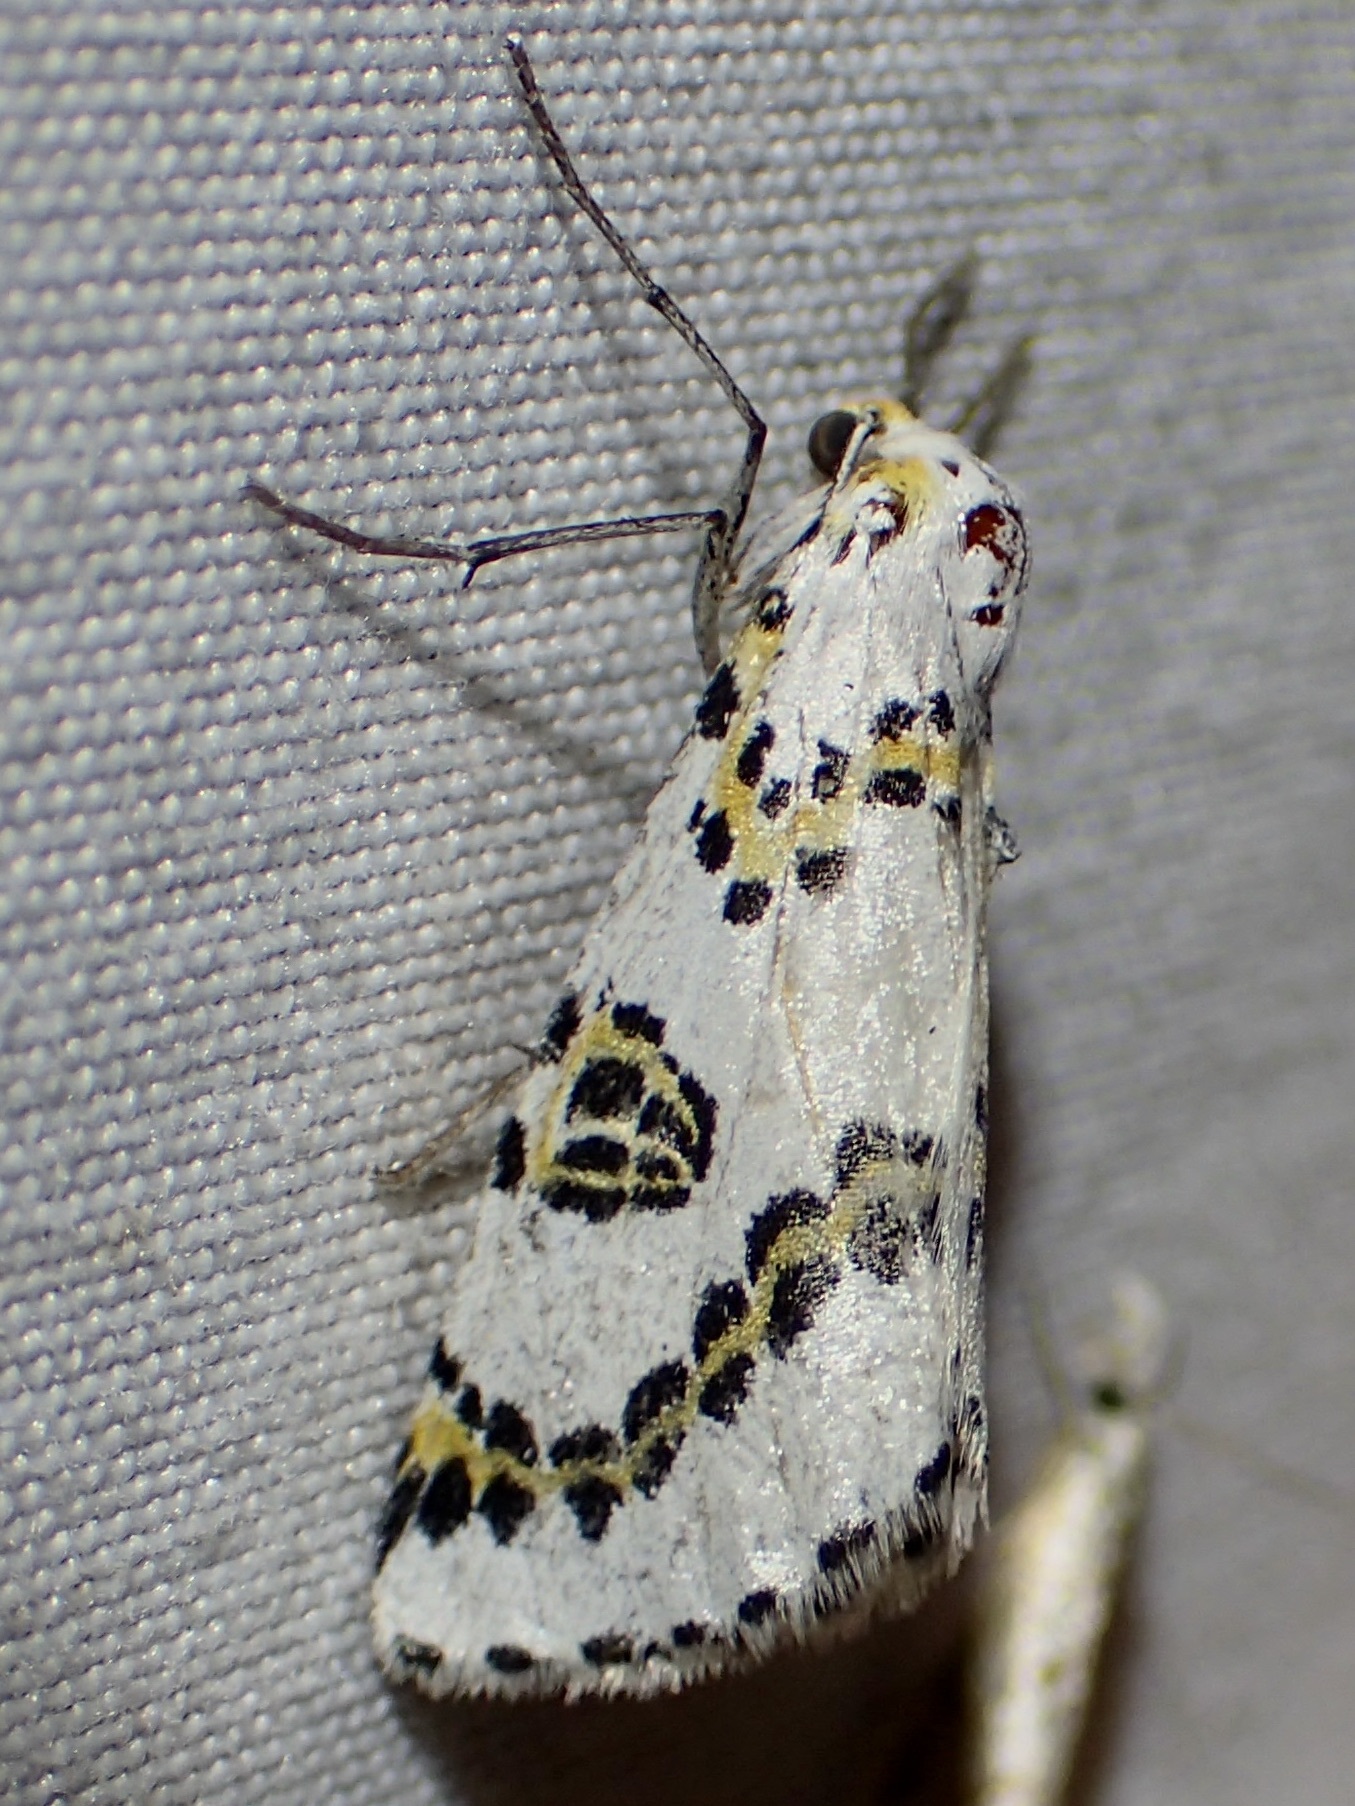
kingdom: Animalia
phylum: Arthropoda
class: Insecta
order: Lepidoptera
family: Geometridae
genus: Philtraea
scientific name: Philtraea elegantaria
